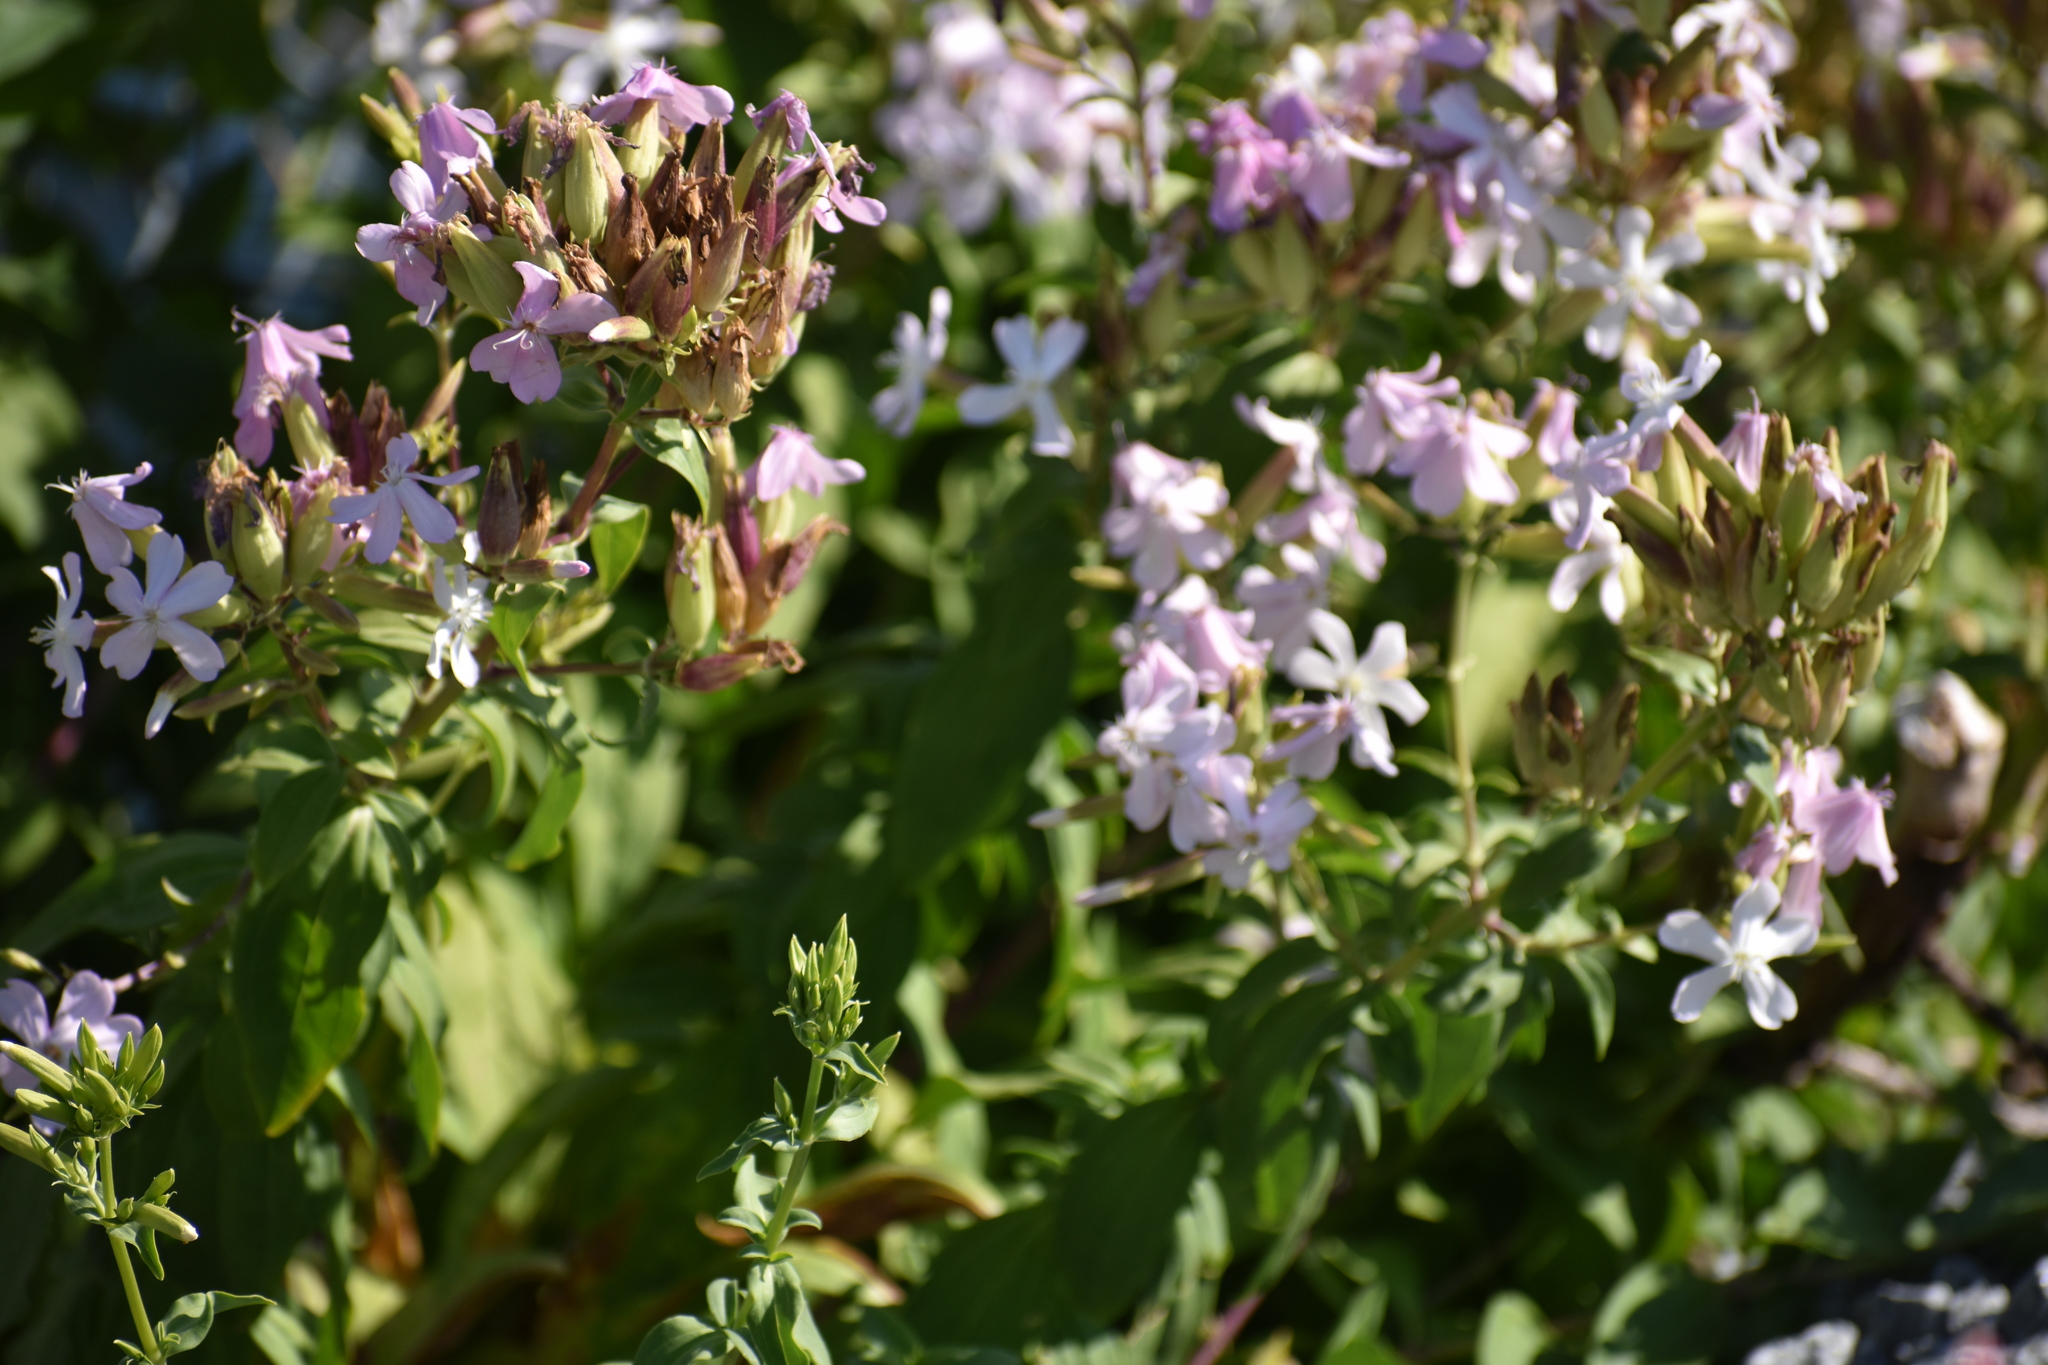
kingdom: Plantae
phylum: Tracheophyta
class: Magnoliopsida
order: Caryophyllales
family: Caryophyllaceae
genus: Saponaria
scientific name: Saponaria officinalis
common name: Soapwort
